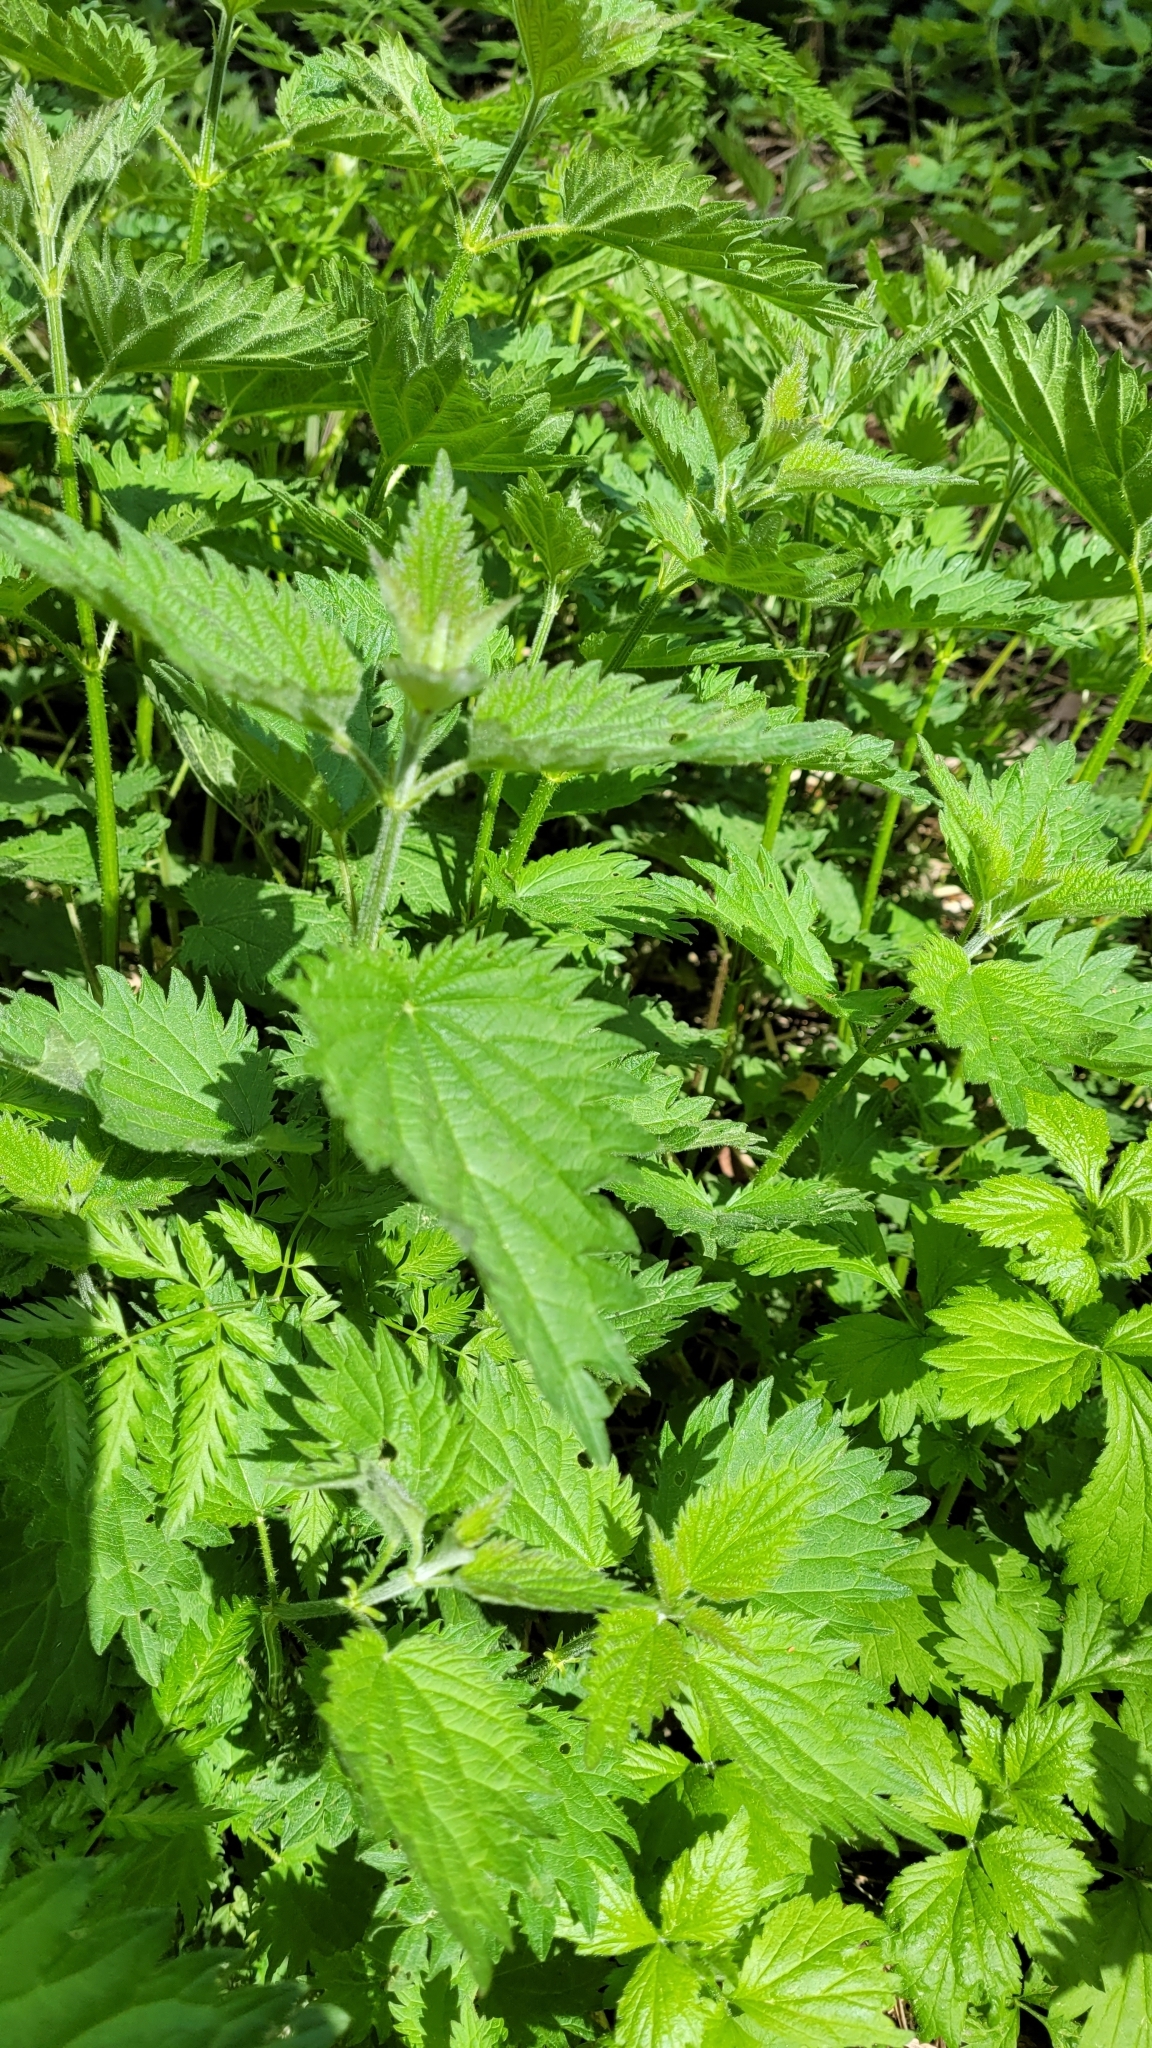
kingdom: Plantae
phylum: Tracheophyta
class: Magnoliopsida
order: Rosales
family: Urticaceae
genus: Urtica
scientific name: Urtica dioica
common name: Common nettle
